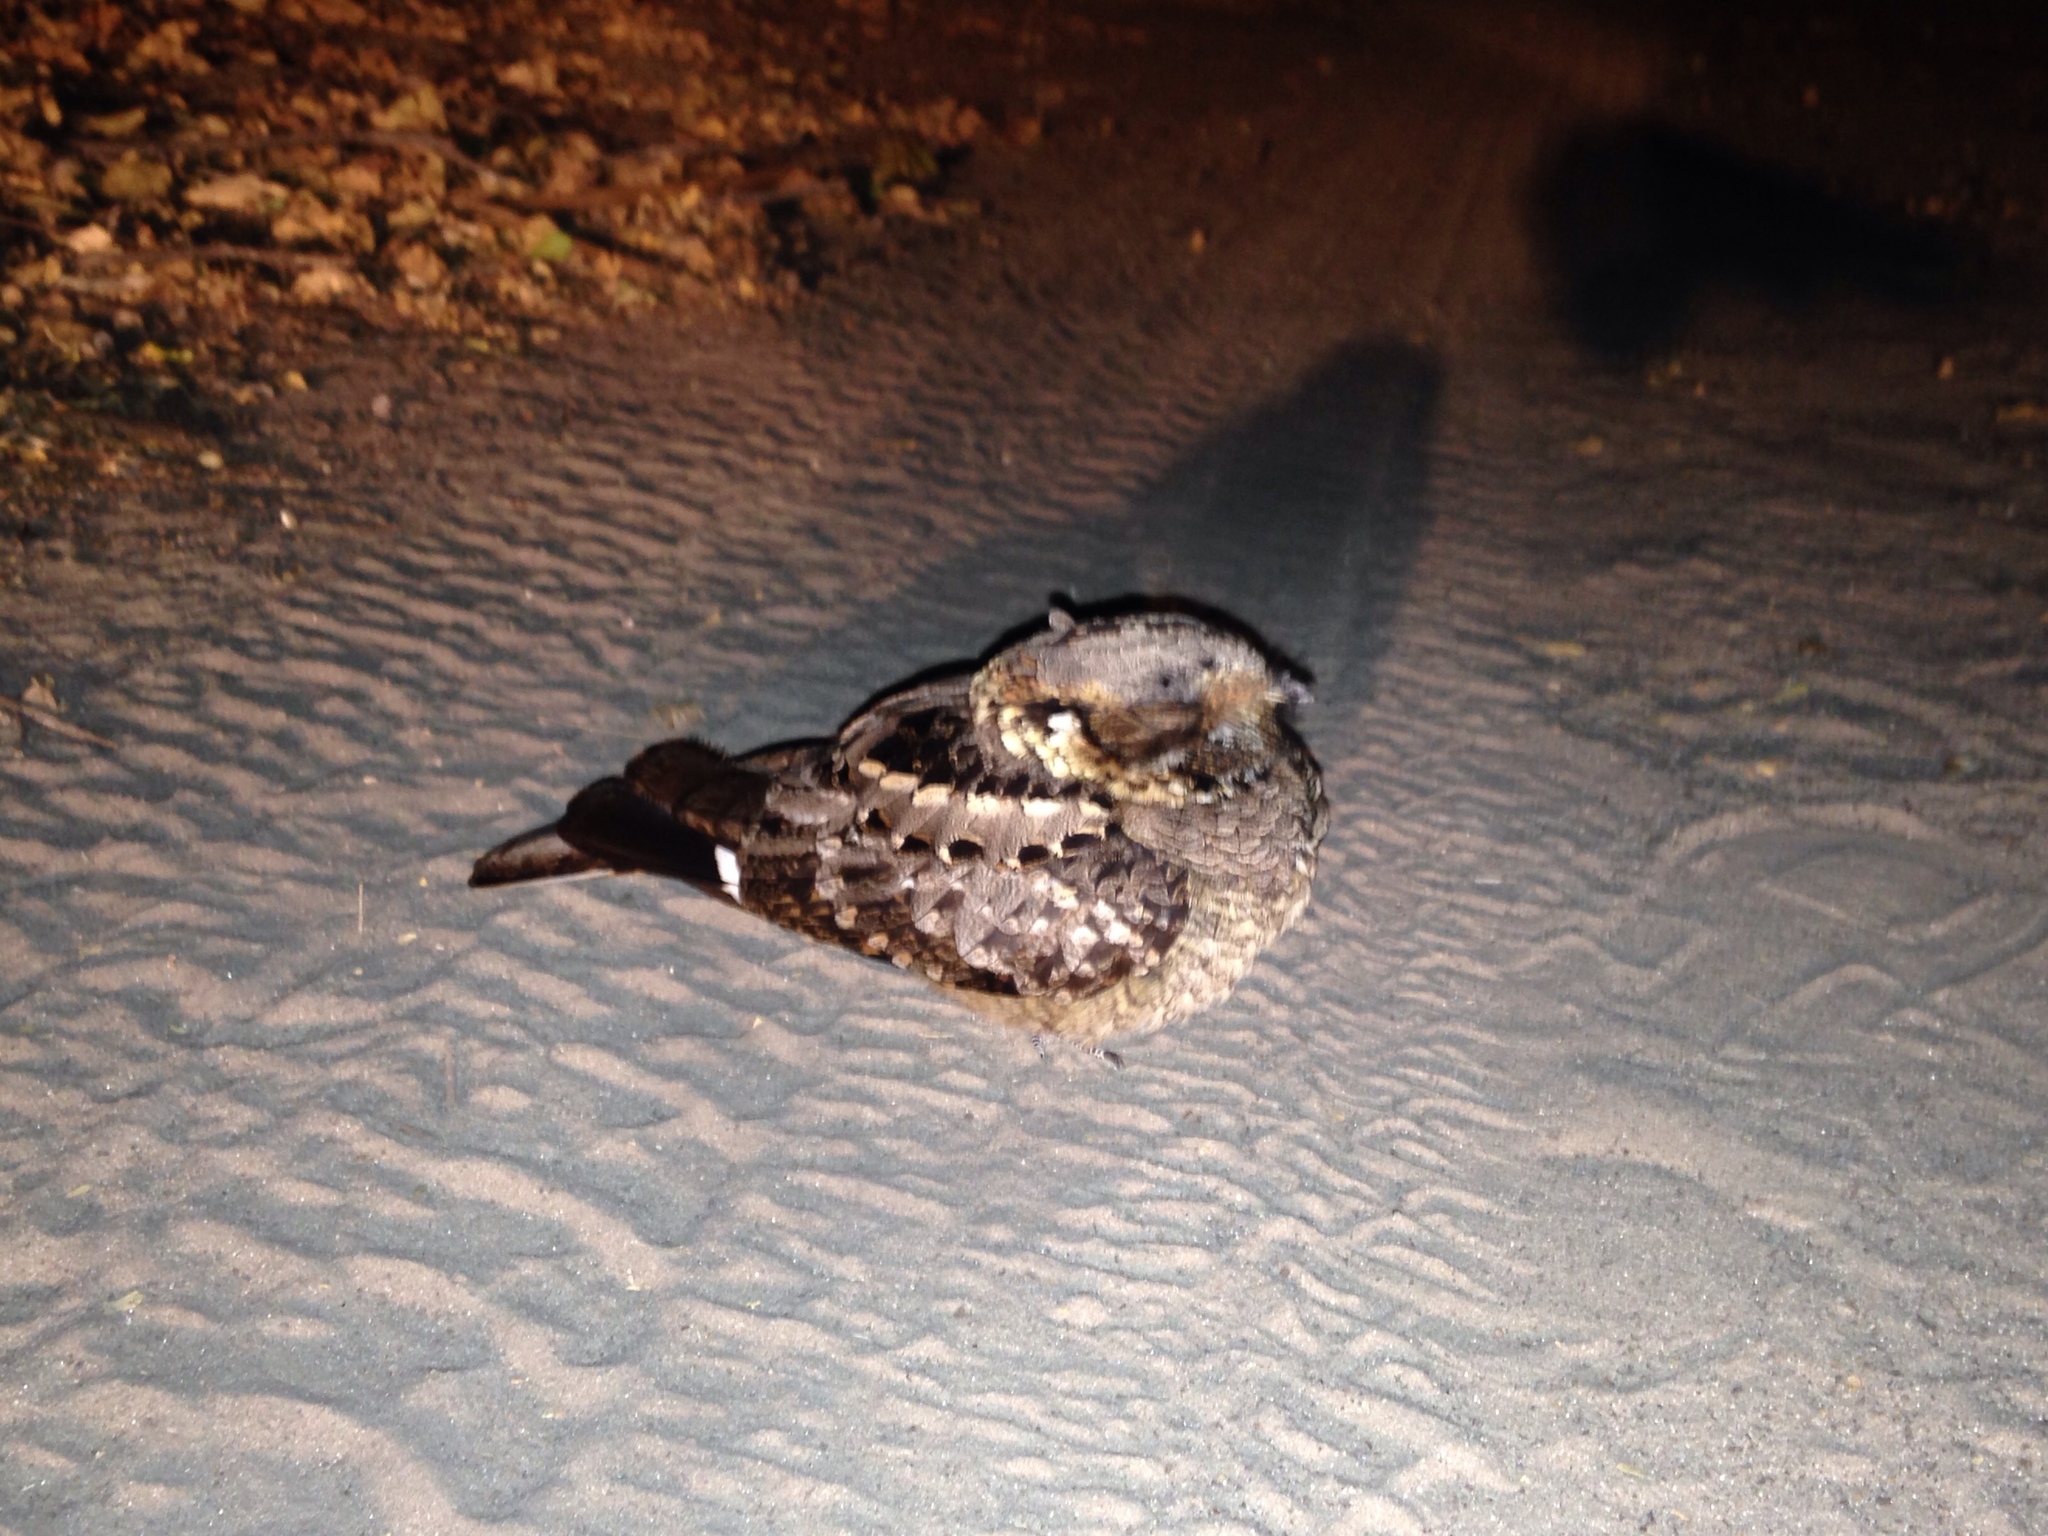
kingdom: Animalia
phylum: Chordata
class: Aves
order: Caprimulgiformes
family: Caprimulgidae
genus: Caprimulgus
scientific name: Caprimulgus pectoralis
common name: Fiery-necked nightjar
